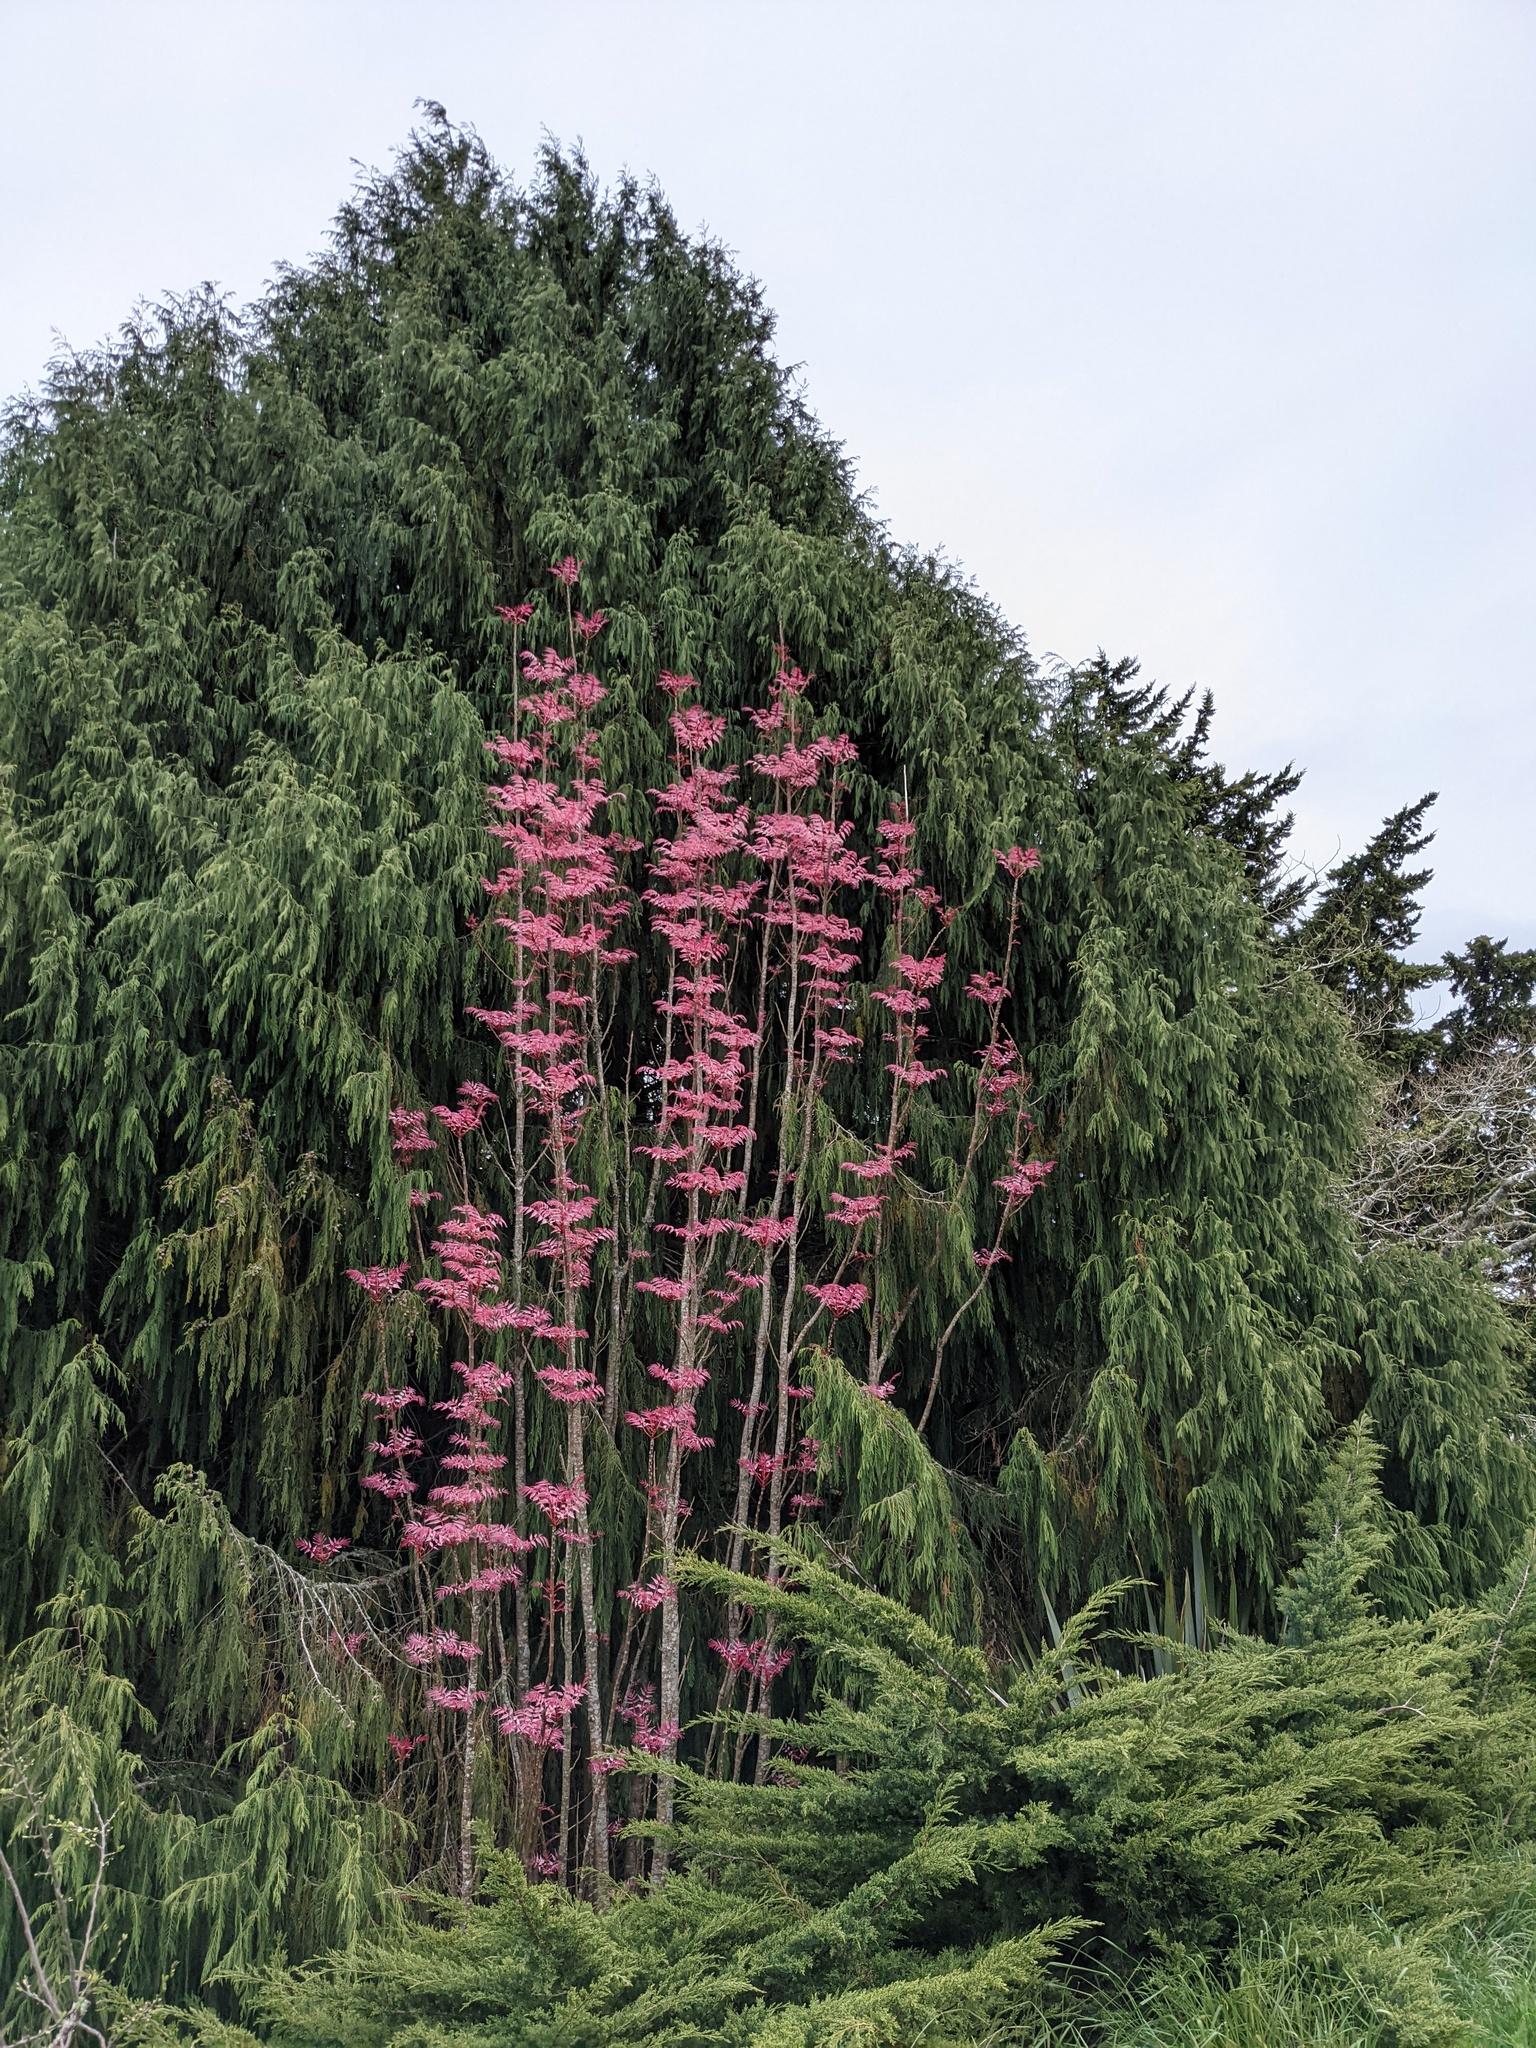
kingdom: Plantae
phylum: Tracheophyta
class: Magnoliopsida
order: Sapindales
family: Meliaceae
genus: Toona
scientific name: Toona sinensis
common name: Red toon
